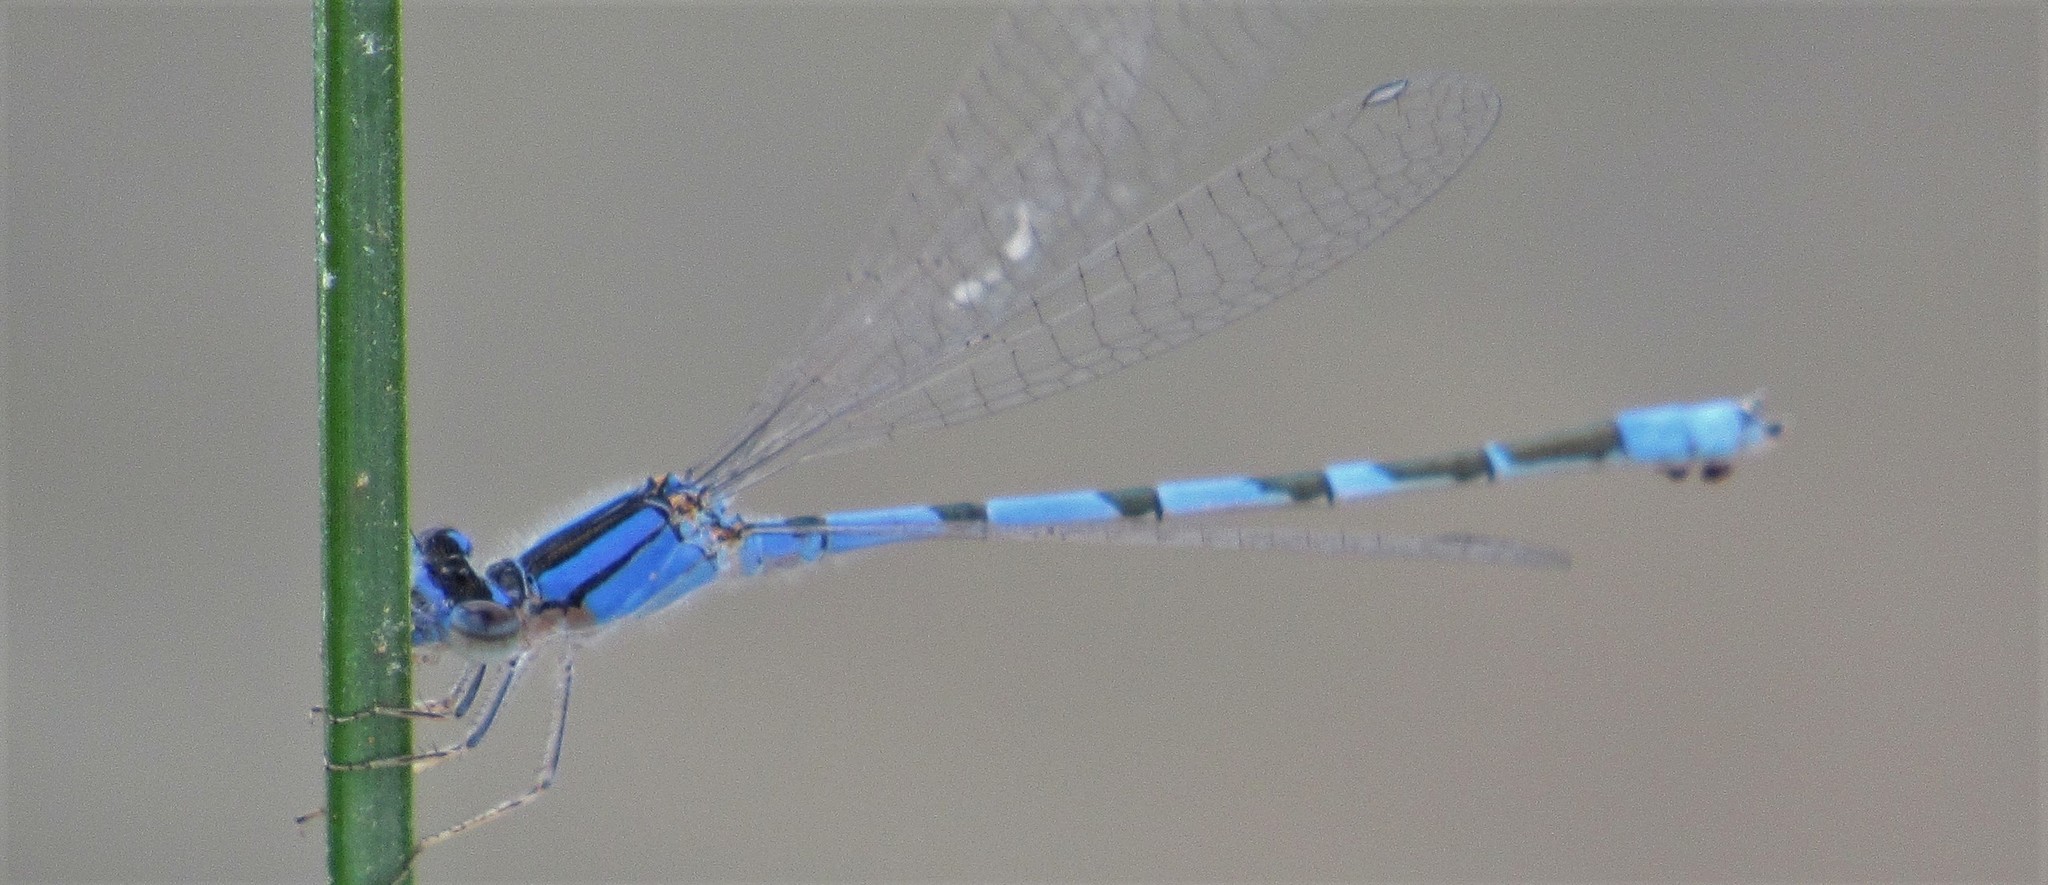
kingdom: Animalia
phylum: Arthropoda
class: Insecta
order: Odonata
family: Coenagrionidae
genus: Enallagma
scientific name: Enallagma civile
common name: Damselfly
